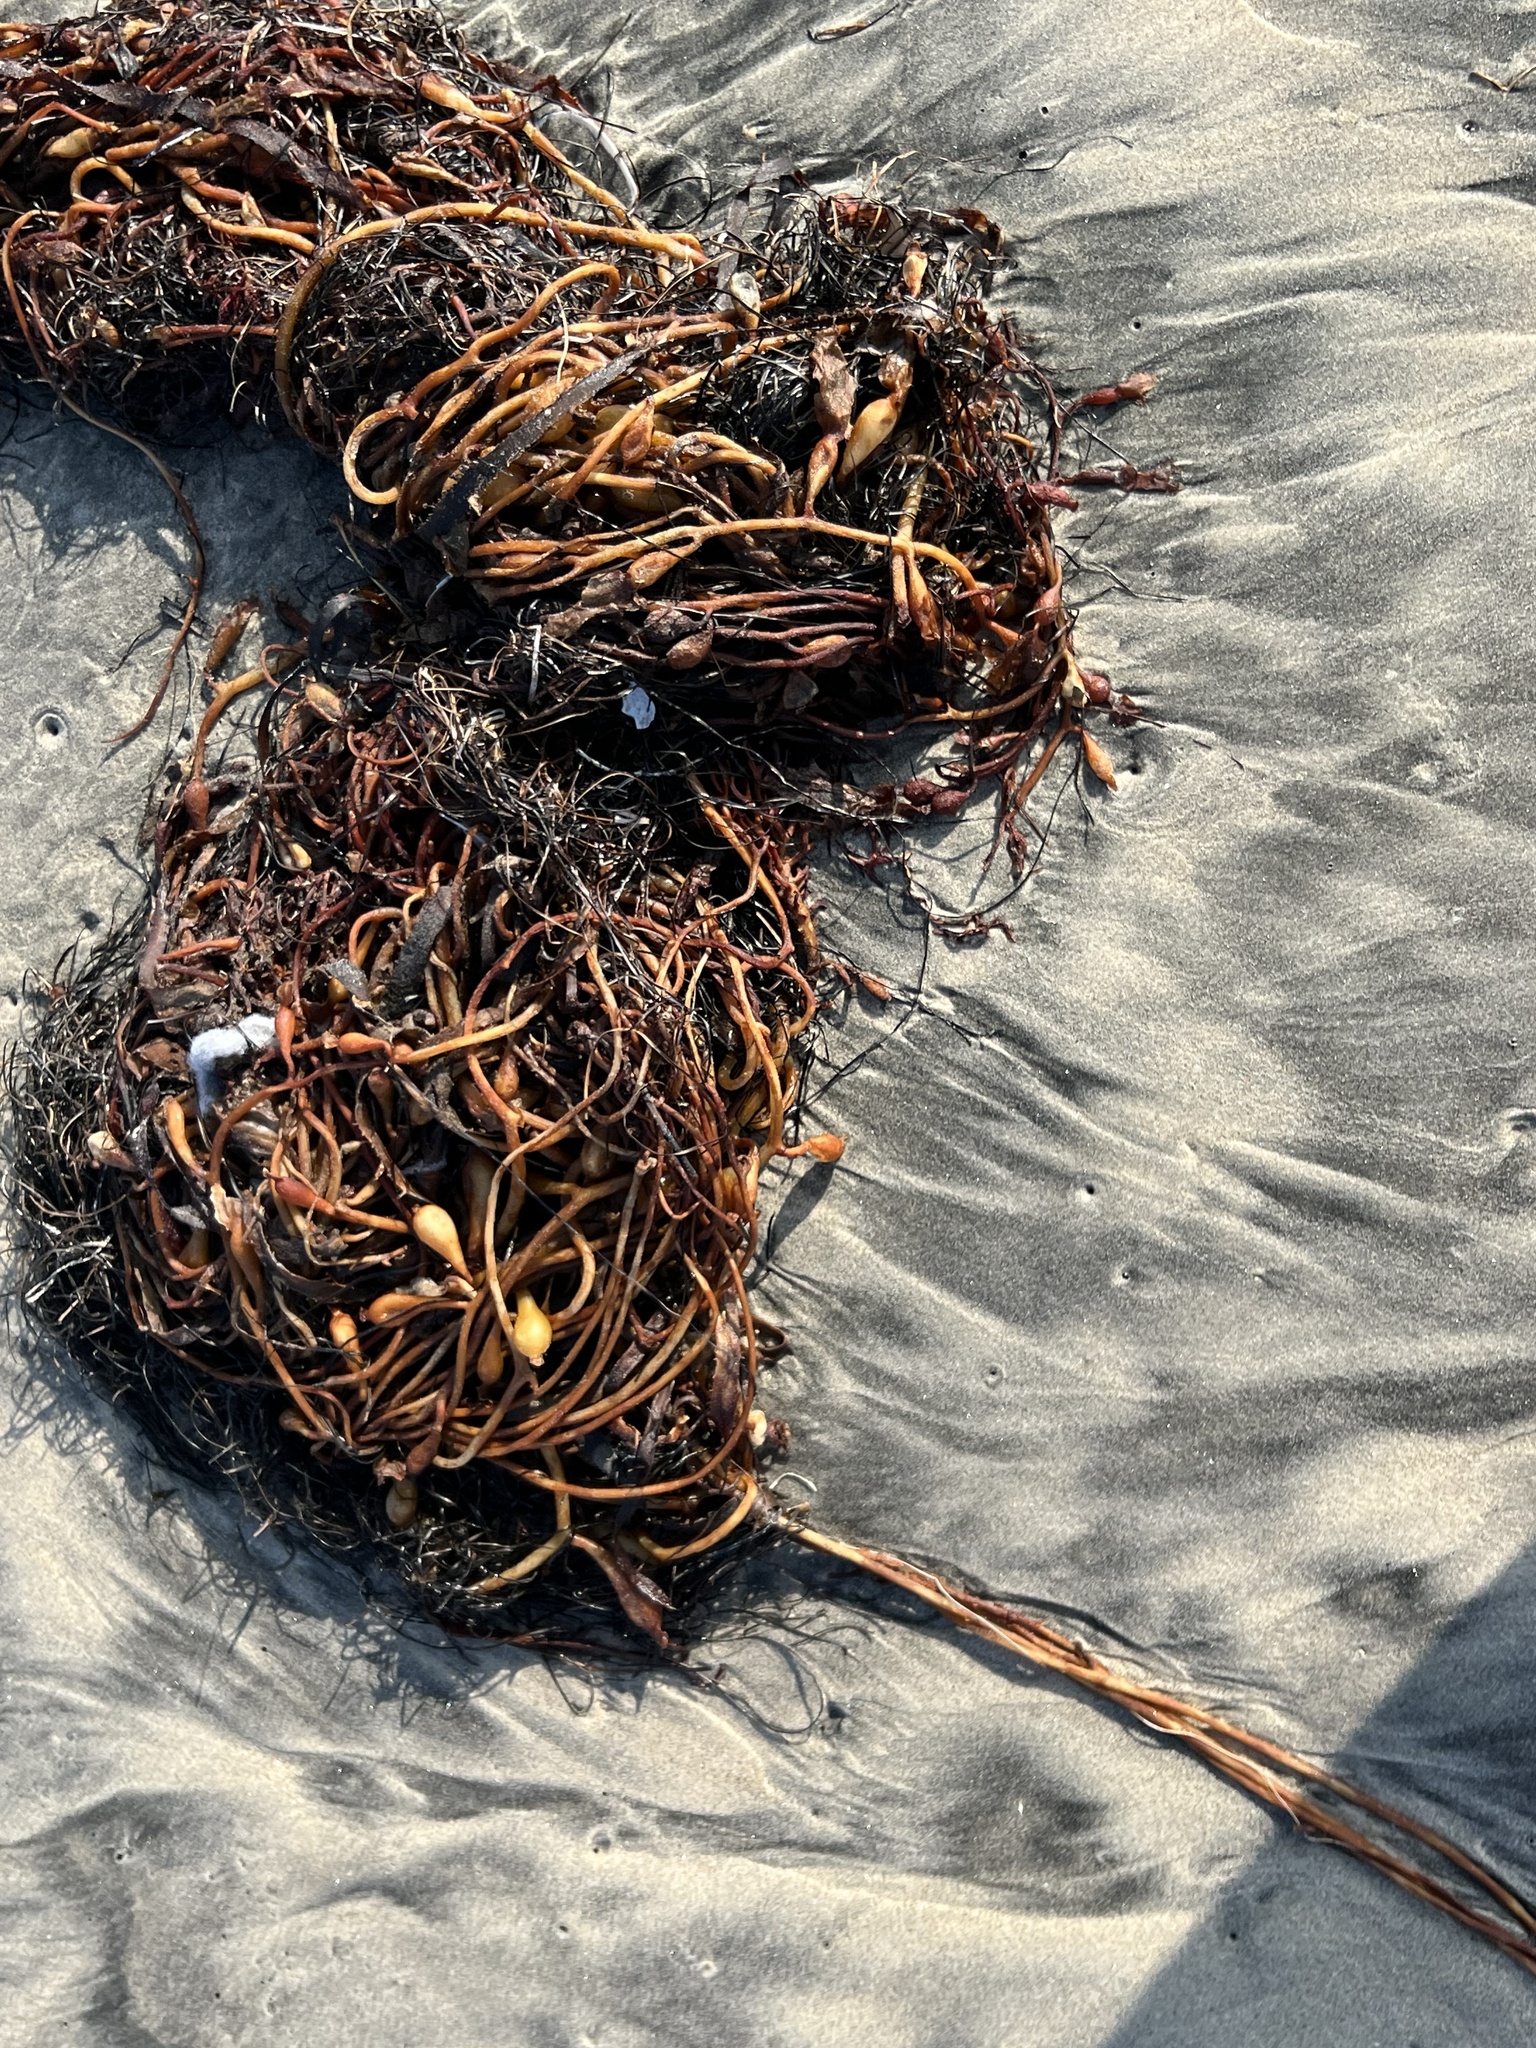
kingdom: Chromista
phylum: Ochrophyta
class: Phaeophyceae
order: Laminariales
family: Laminariaceae
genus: Macrocystis
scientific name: Macrocystis pyrifera
